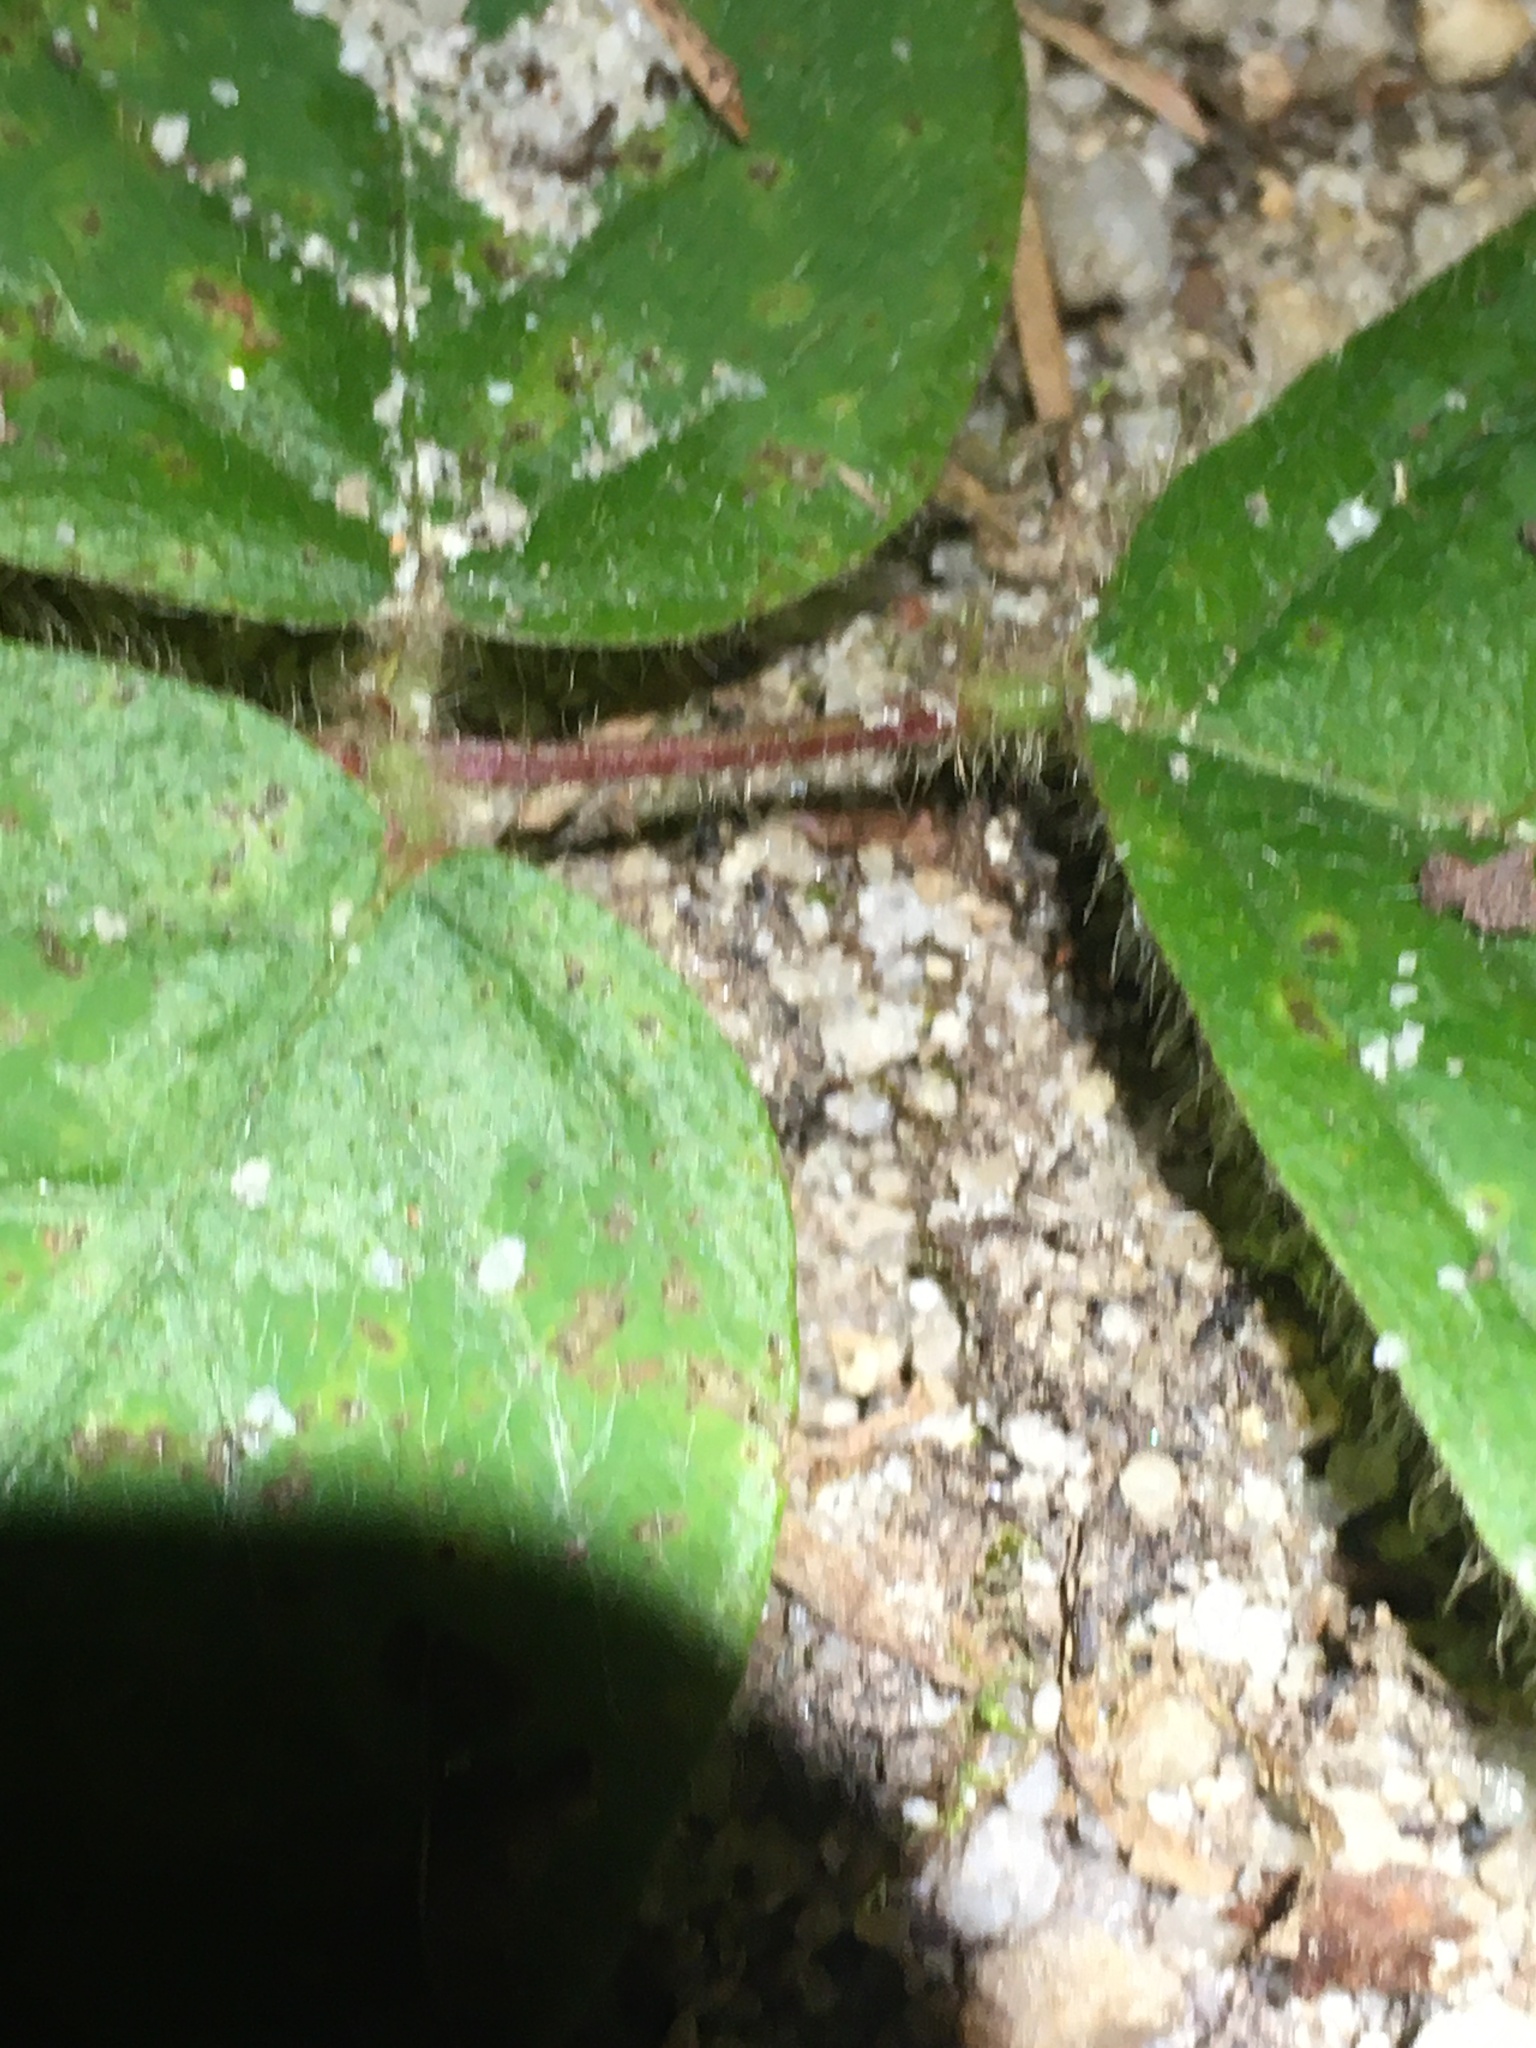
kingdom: Plantae
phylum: Tracheophyta
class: Magnoliopsida
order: Fabales
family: Fabaceae
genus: Desmodium
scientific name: Desmodium rotundifolium
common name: Dollarleaf
